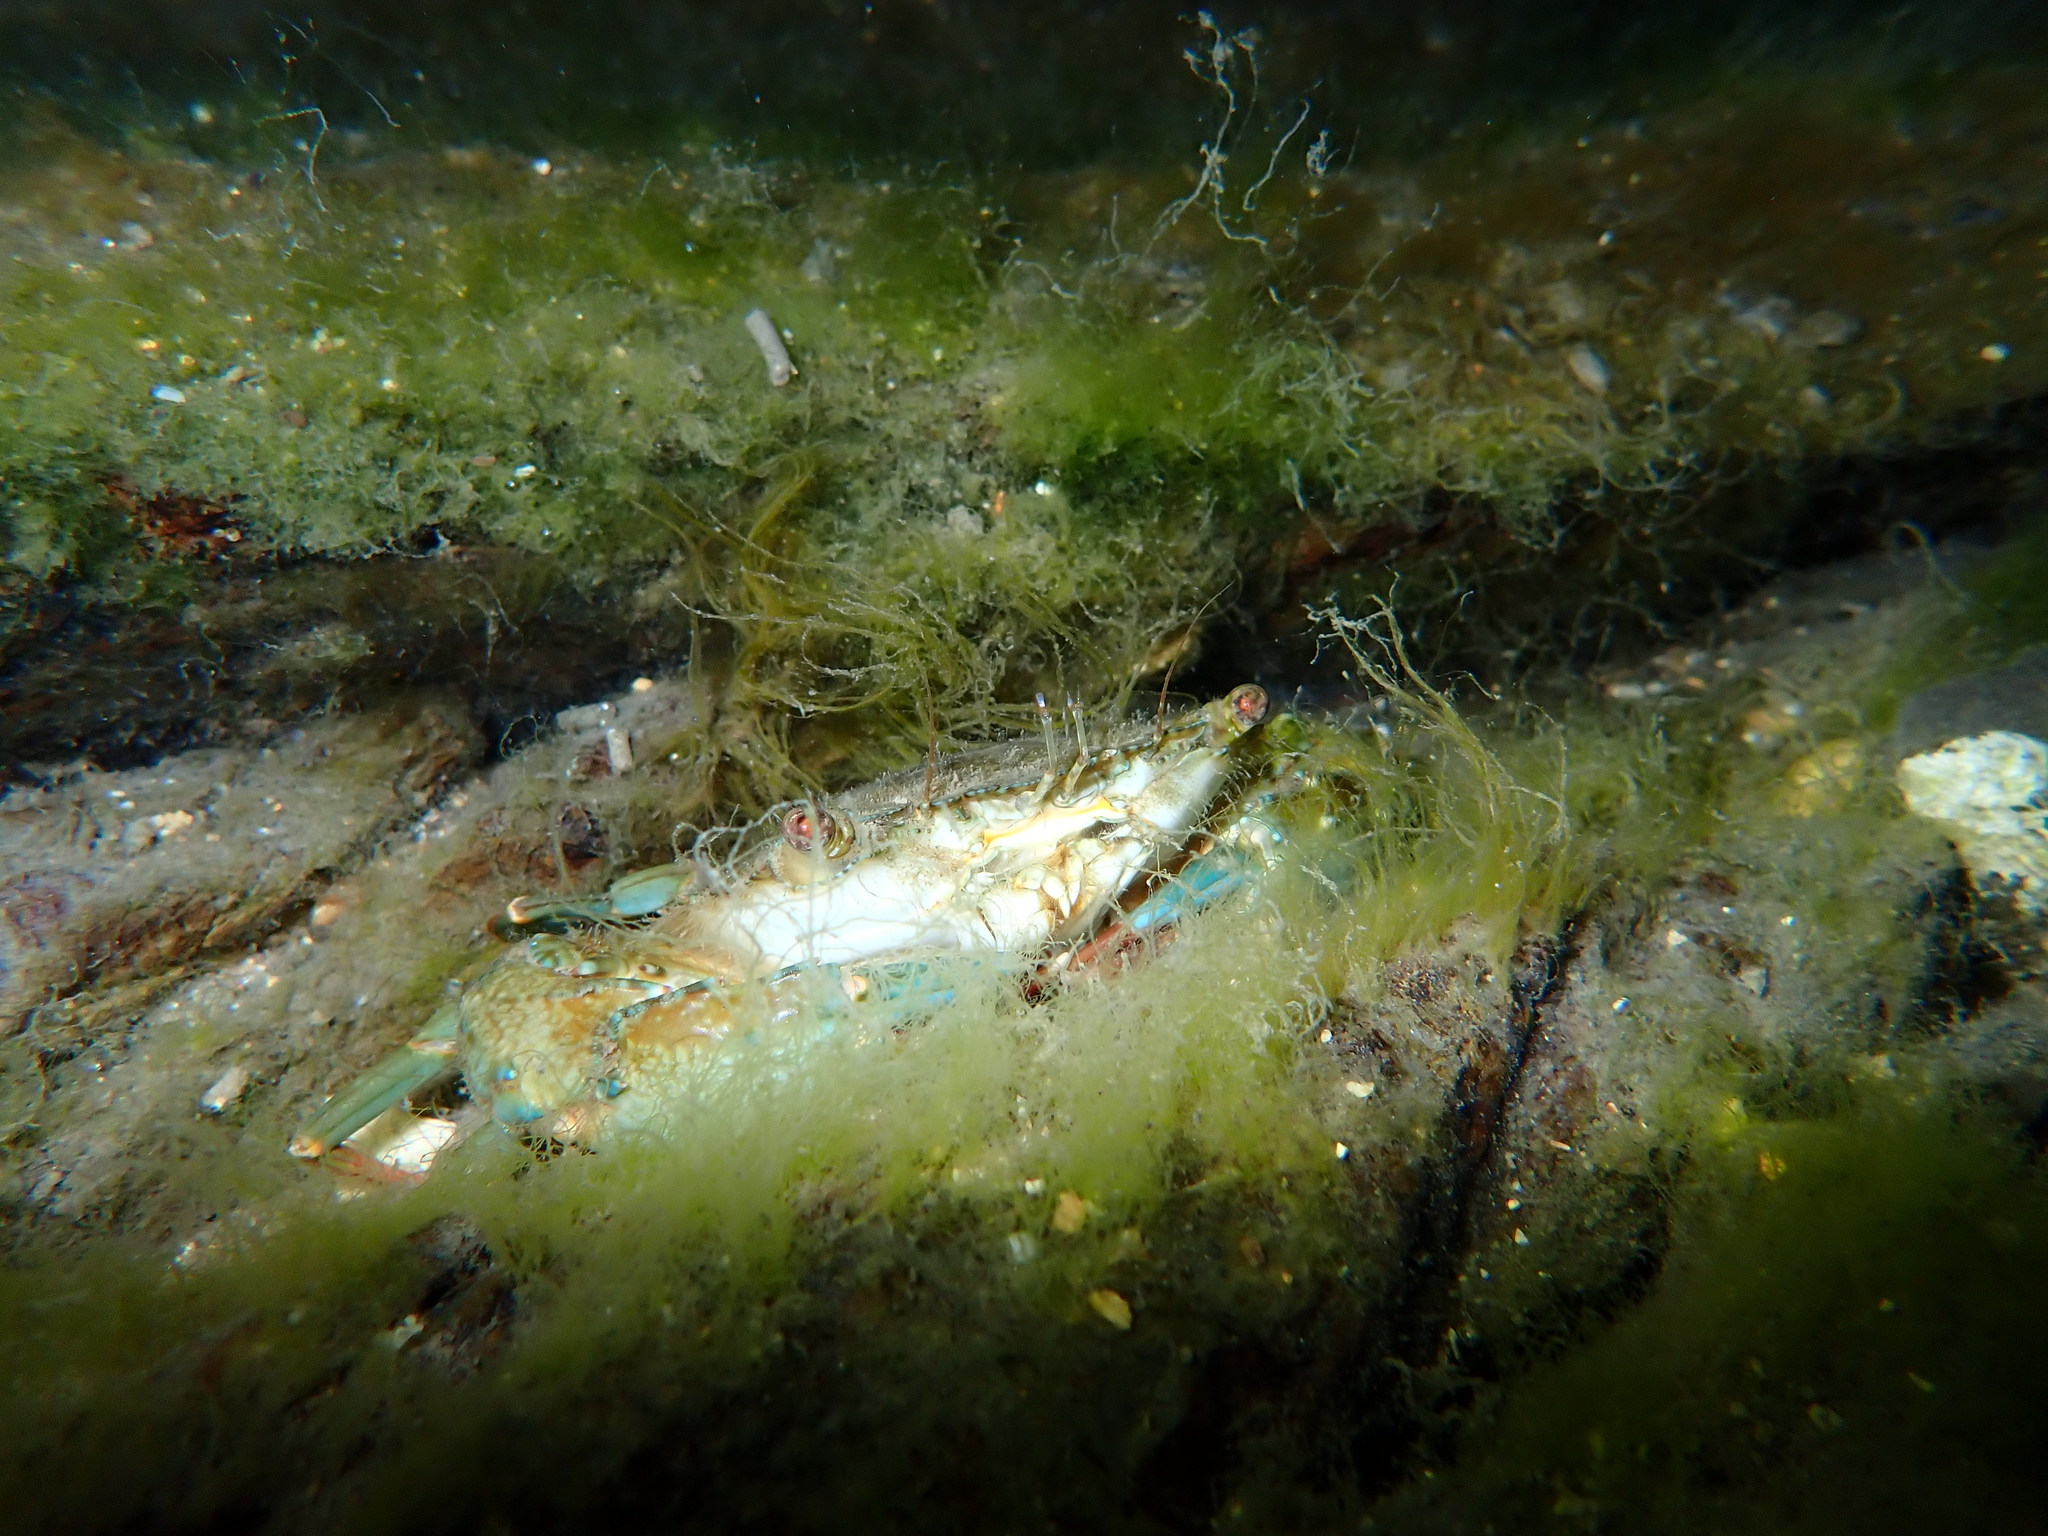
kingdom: Animalia
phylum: Arthropoda
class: Malacostraca
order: Decapoda
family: Portunidae
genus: Thalamita
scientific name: Thalamita crenata
